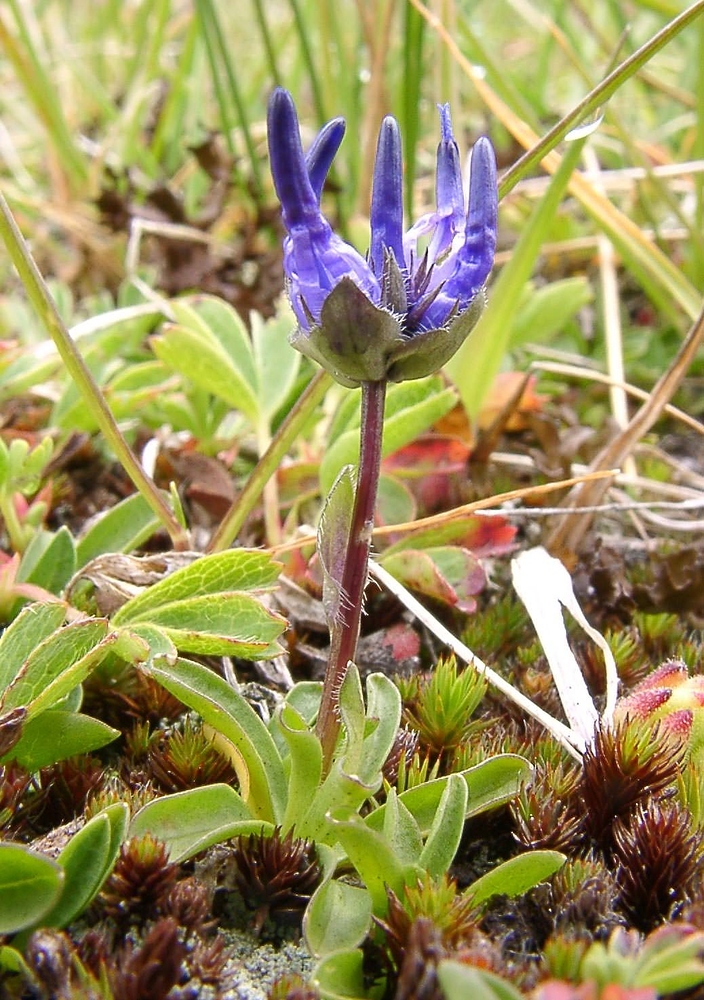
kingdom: Plantae
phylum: Tracheophyta
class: Magnoliopsida
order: Asterales
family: Campanulaceae
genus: Phyteuma
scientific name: Phyteuma globulariifolium
